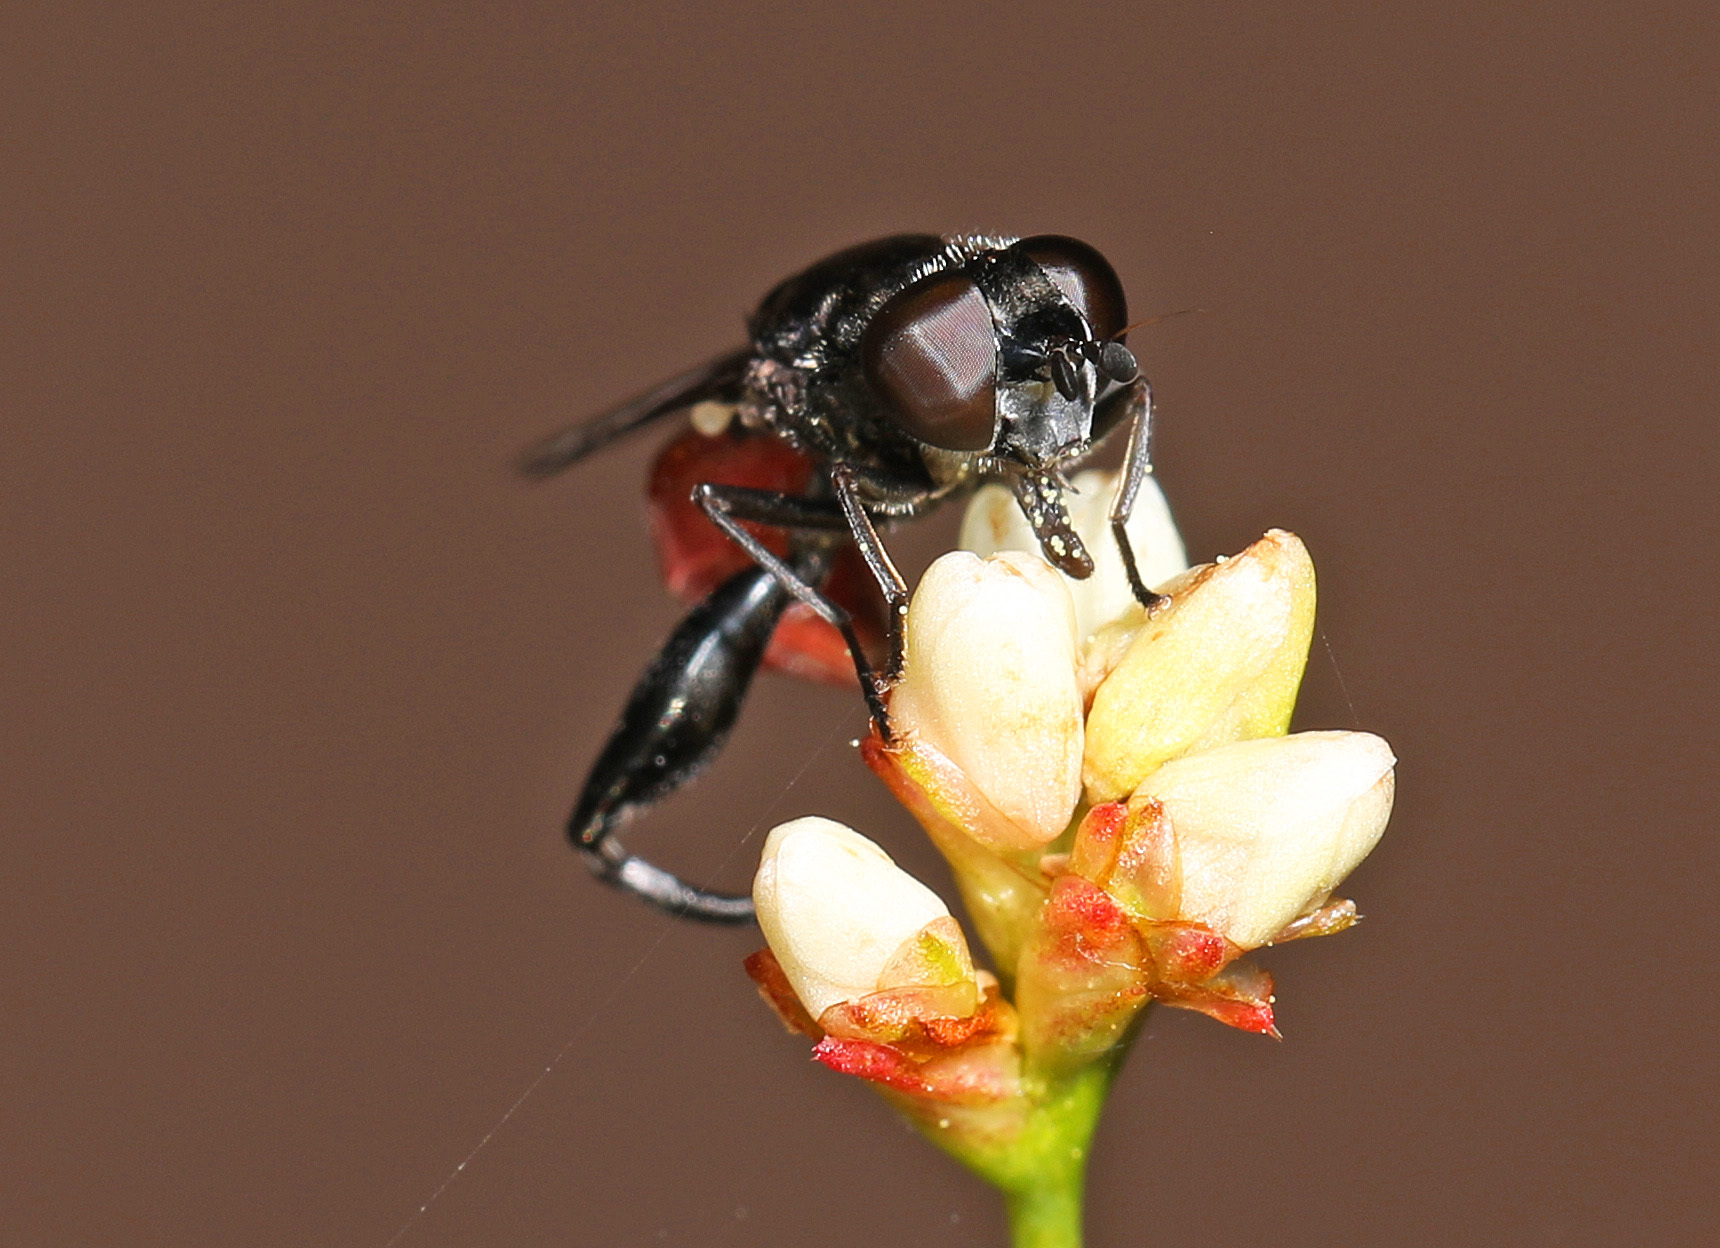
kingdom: Animalia
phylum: Arthropoda
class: Insecta
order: Diptera
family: Syrphidae
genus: Chalcosyrphus
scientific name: Chalcosyrphus piger
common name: Short-haired leafwalker
